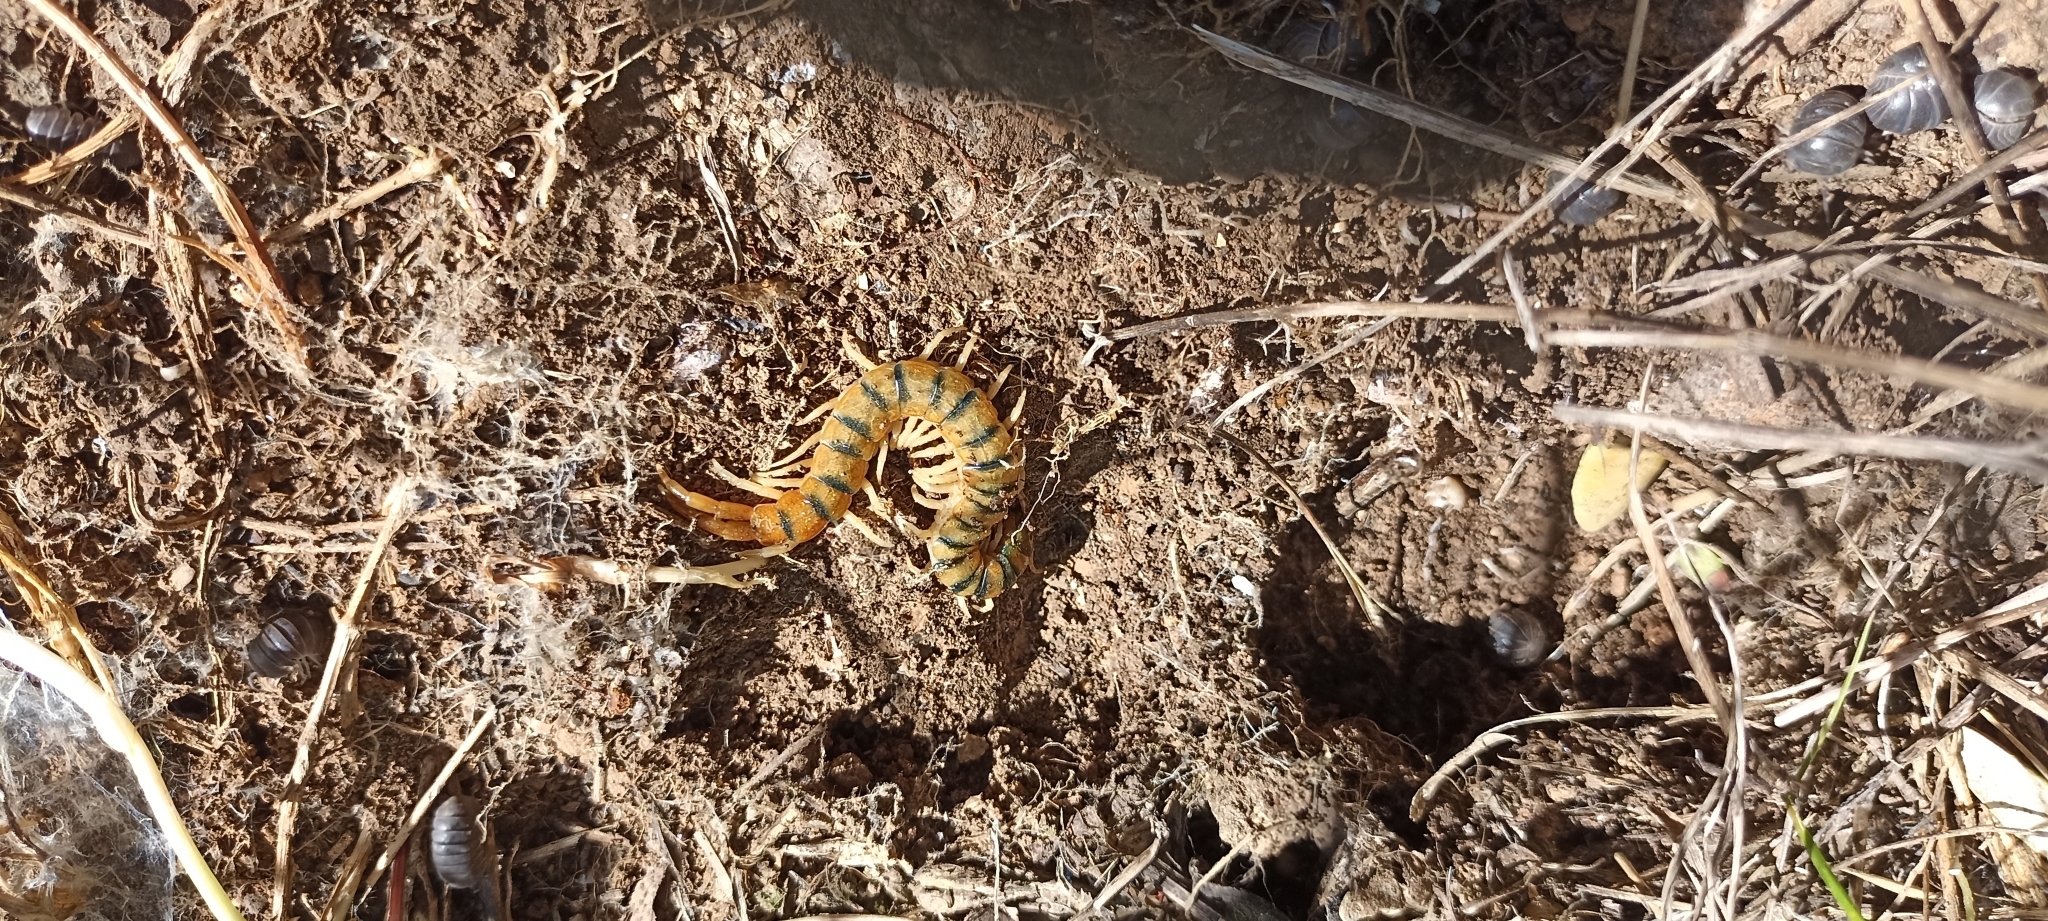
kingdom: Animalia
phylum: Arthropoda
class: Chilopoda
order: Scolopendromorpha
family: Scolopendridae
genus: Scolopendra
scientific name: Scolopendra cingulata
